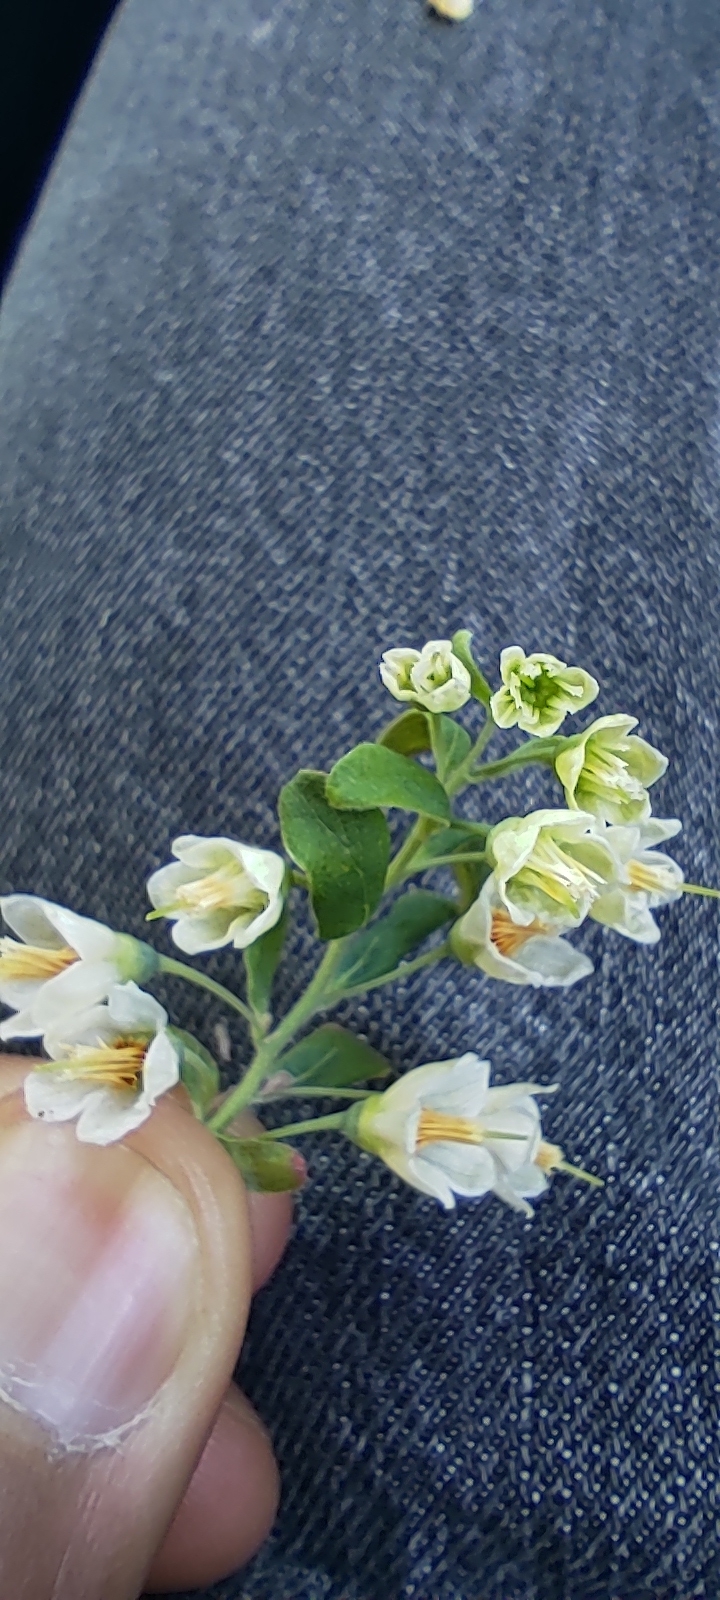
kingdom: Plantae
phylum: Tracheophyta
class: Magnoliopsida
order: Ericales
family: Ericaceae
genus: Vaccinium
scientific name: Vaccinium stamineum
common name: Deerberry
